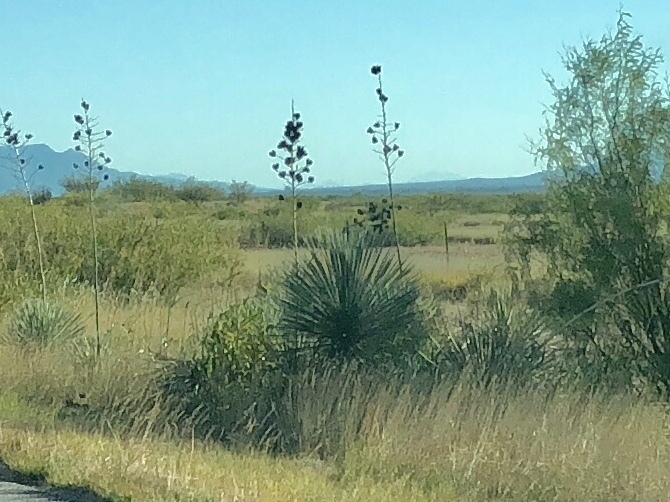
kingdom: Plantae
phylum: Tracheophyta
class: Liliopsida
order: Asparagales
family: Asparagaceae
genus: Yucca
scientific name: Yucca elata
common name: Palmella
